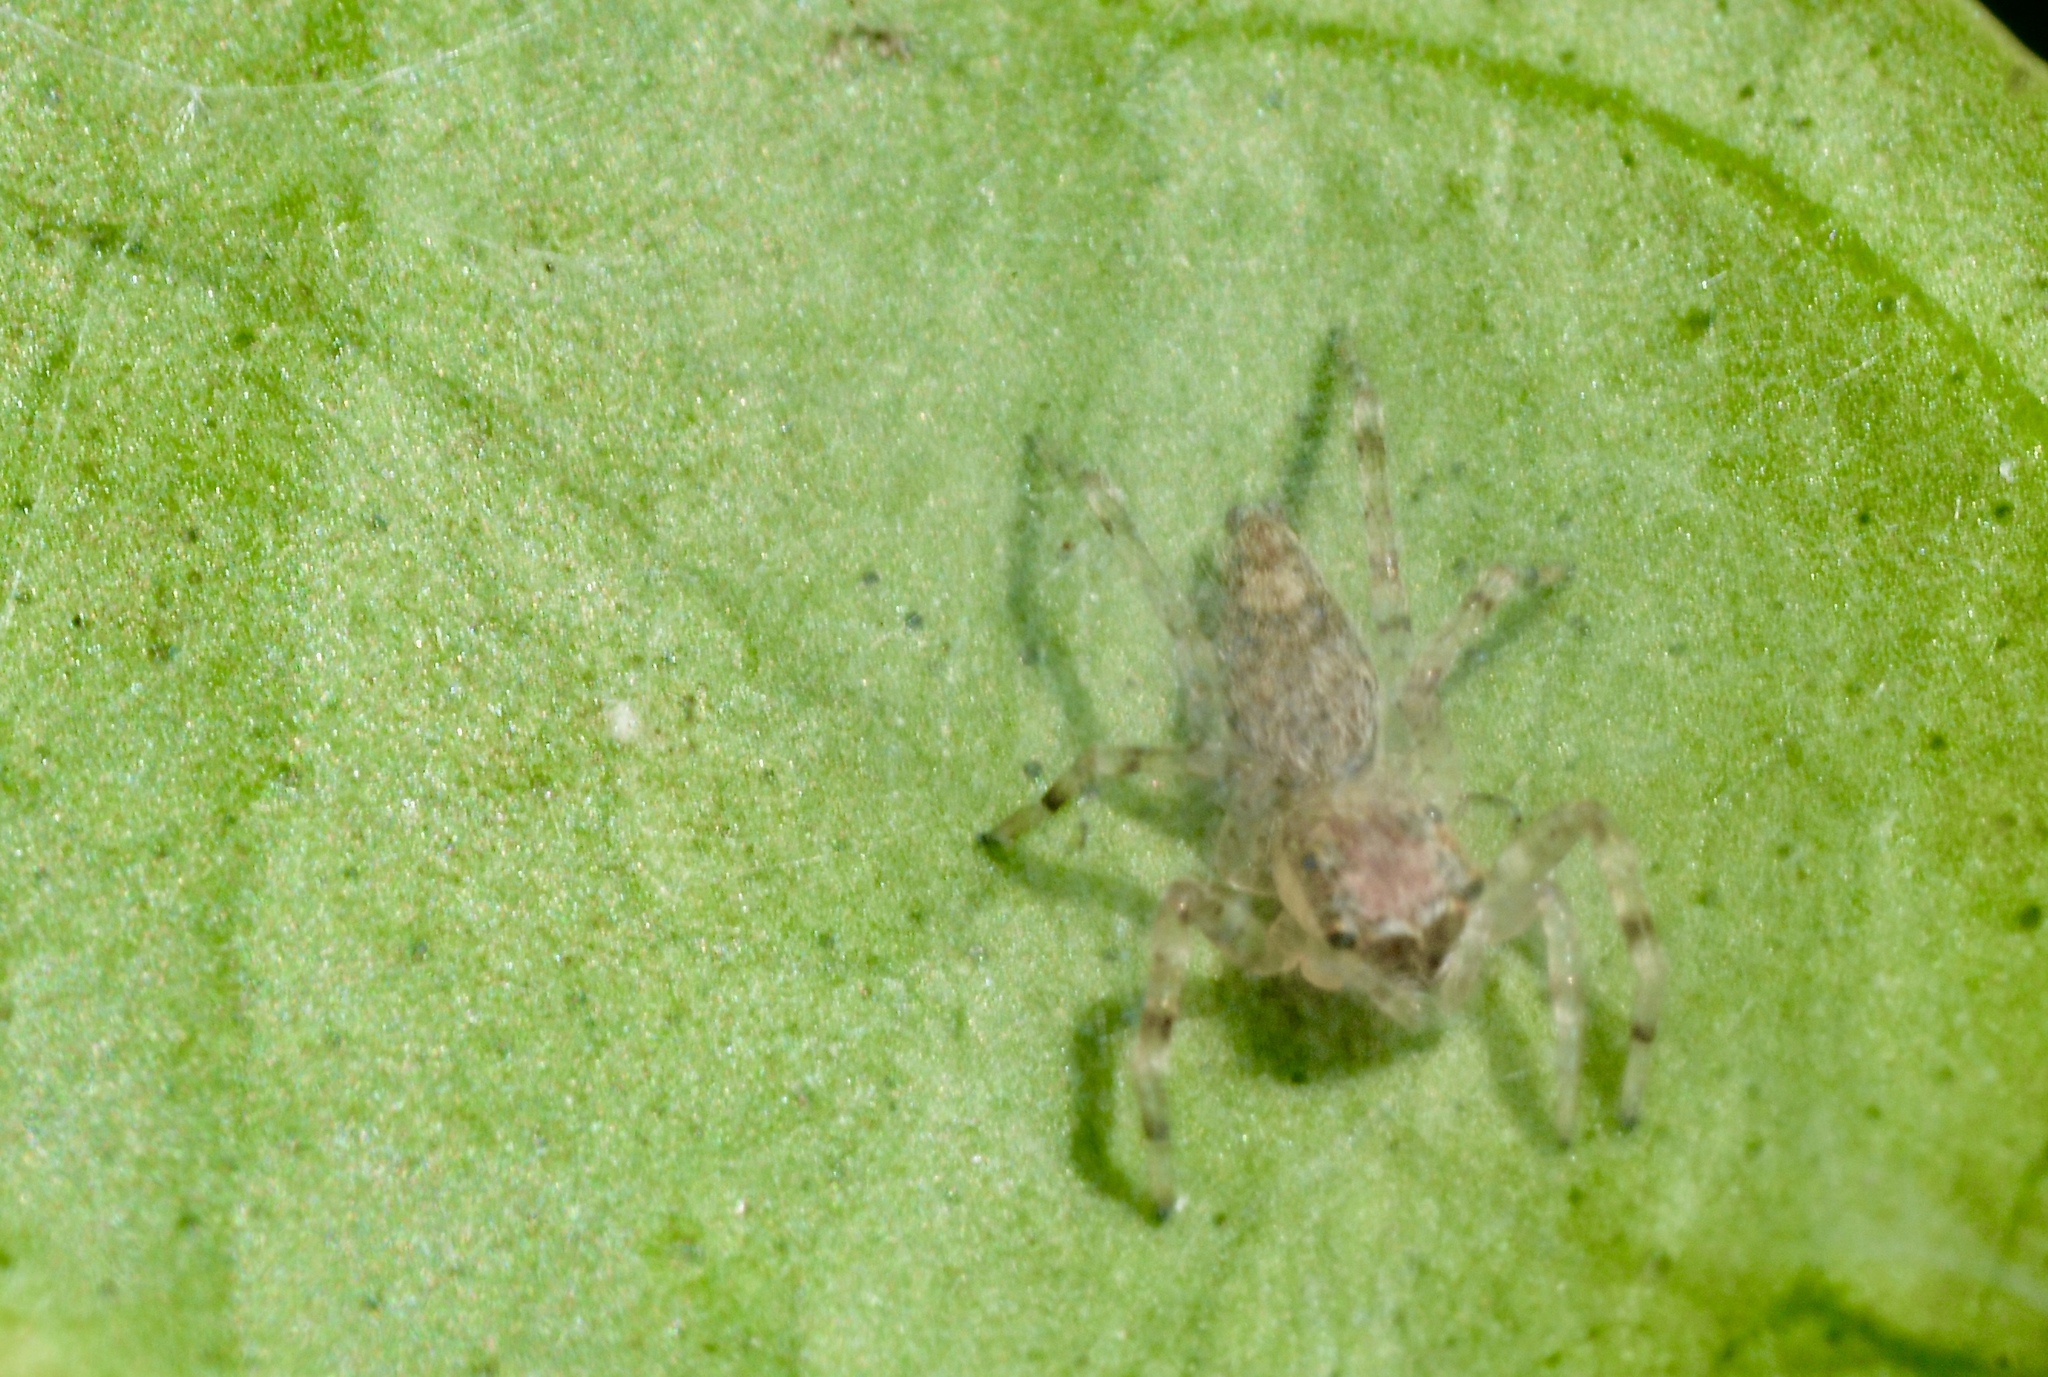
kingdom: Animalia
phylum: Arthropoda
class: Arachnida
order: Araneae
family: Salticidae
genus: Helpis
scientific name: Helpis minitabunda
